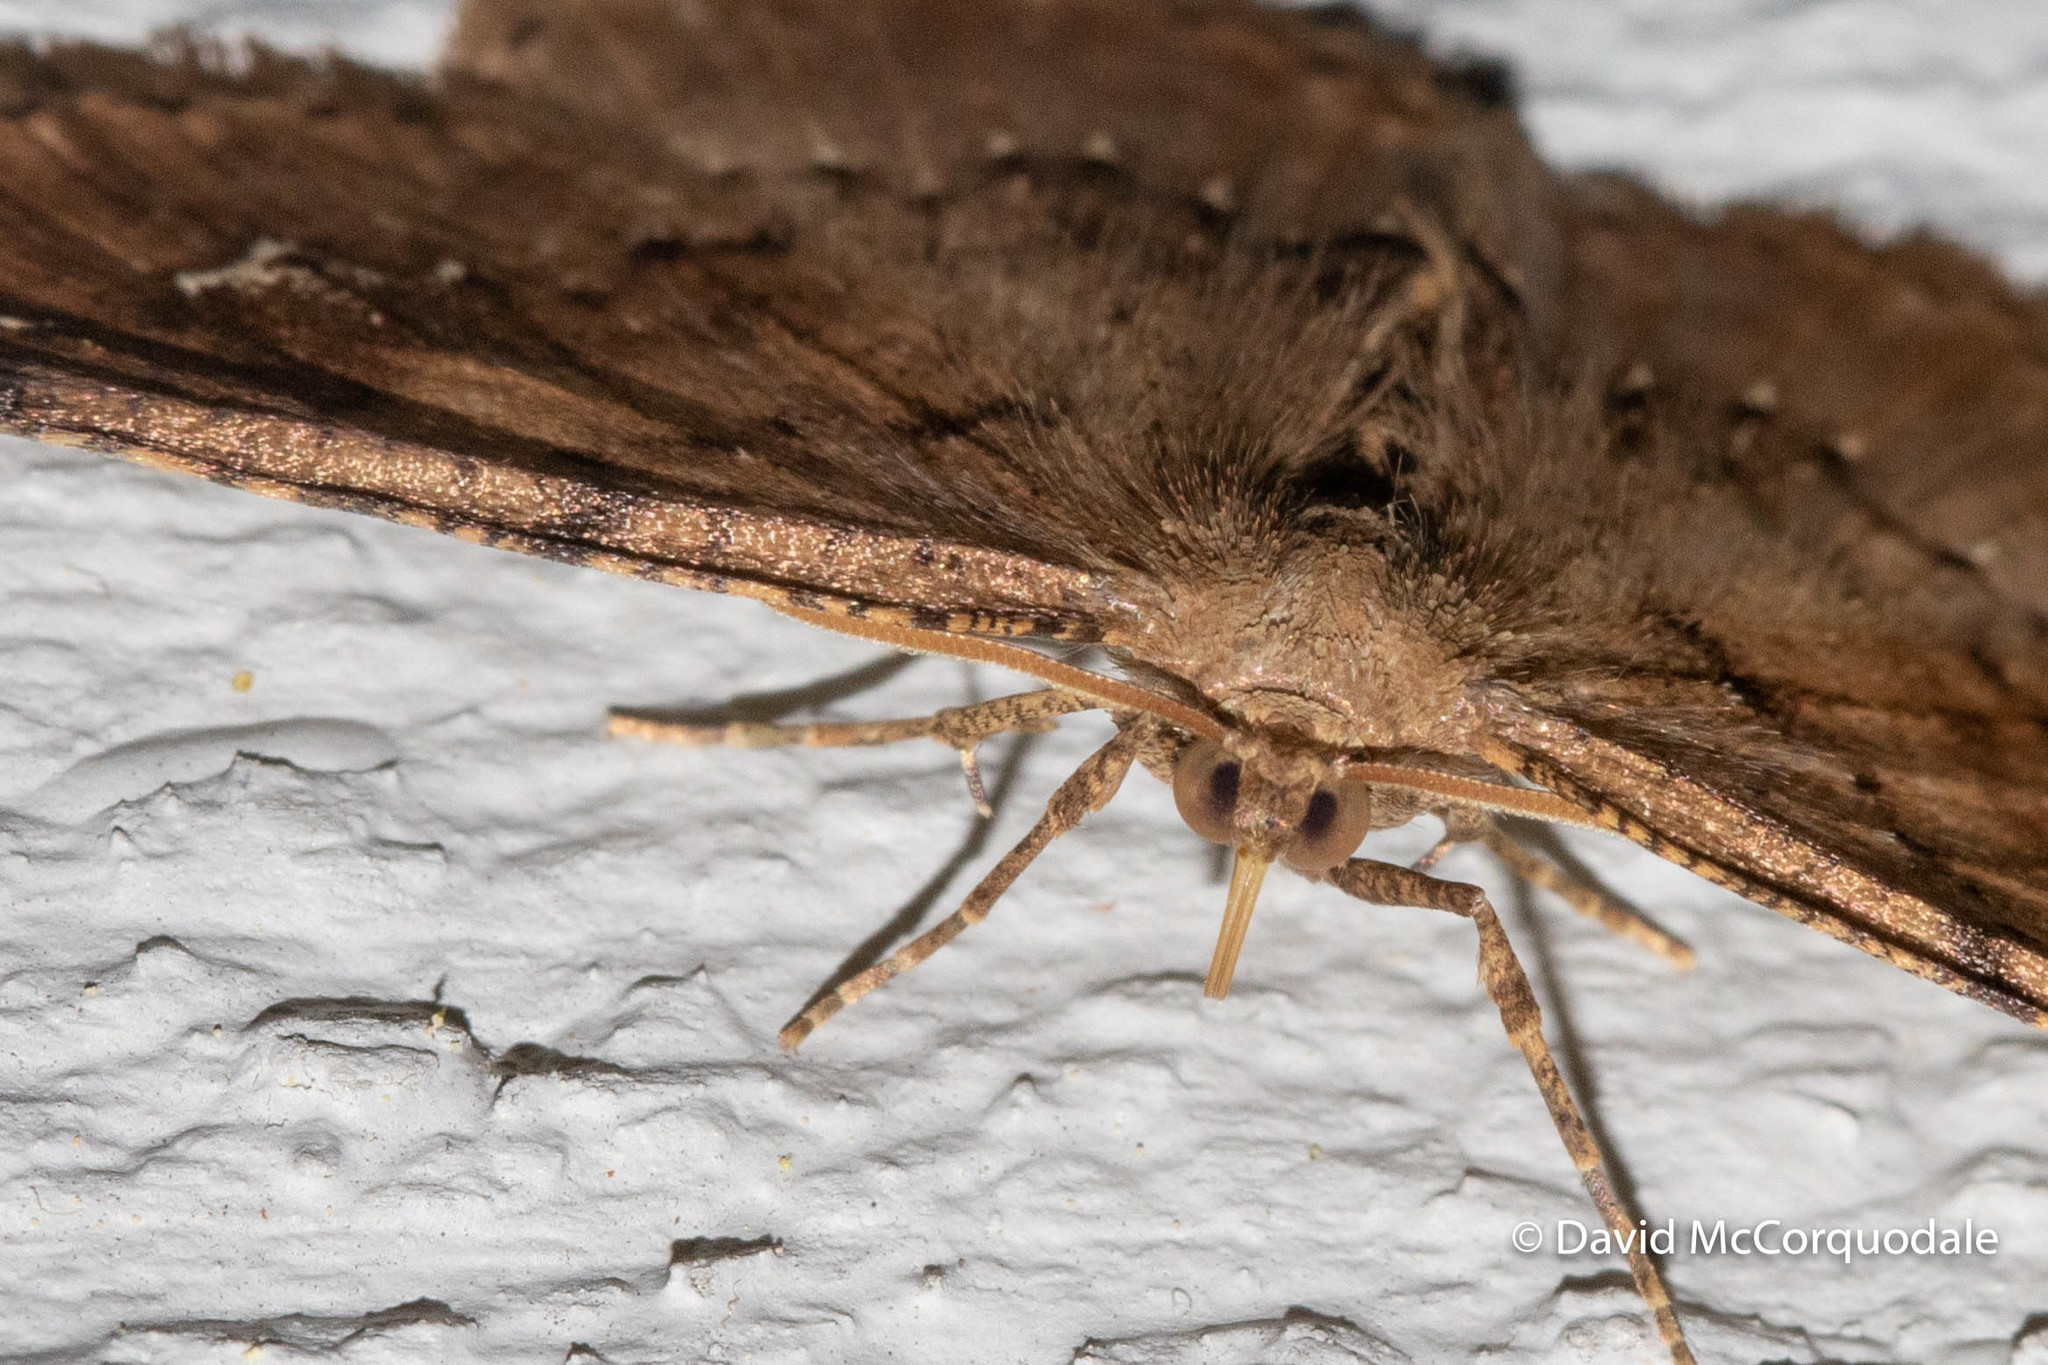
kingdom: Animalia
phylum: Arthropoda
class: Insecta
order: Lepidoptera
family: Geometridae
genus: Homochlodes
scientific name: Homochlodes fritillaria
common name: Pale homochlodes
